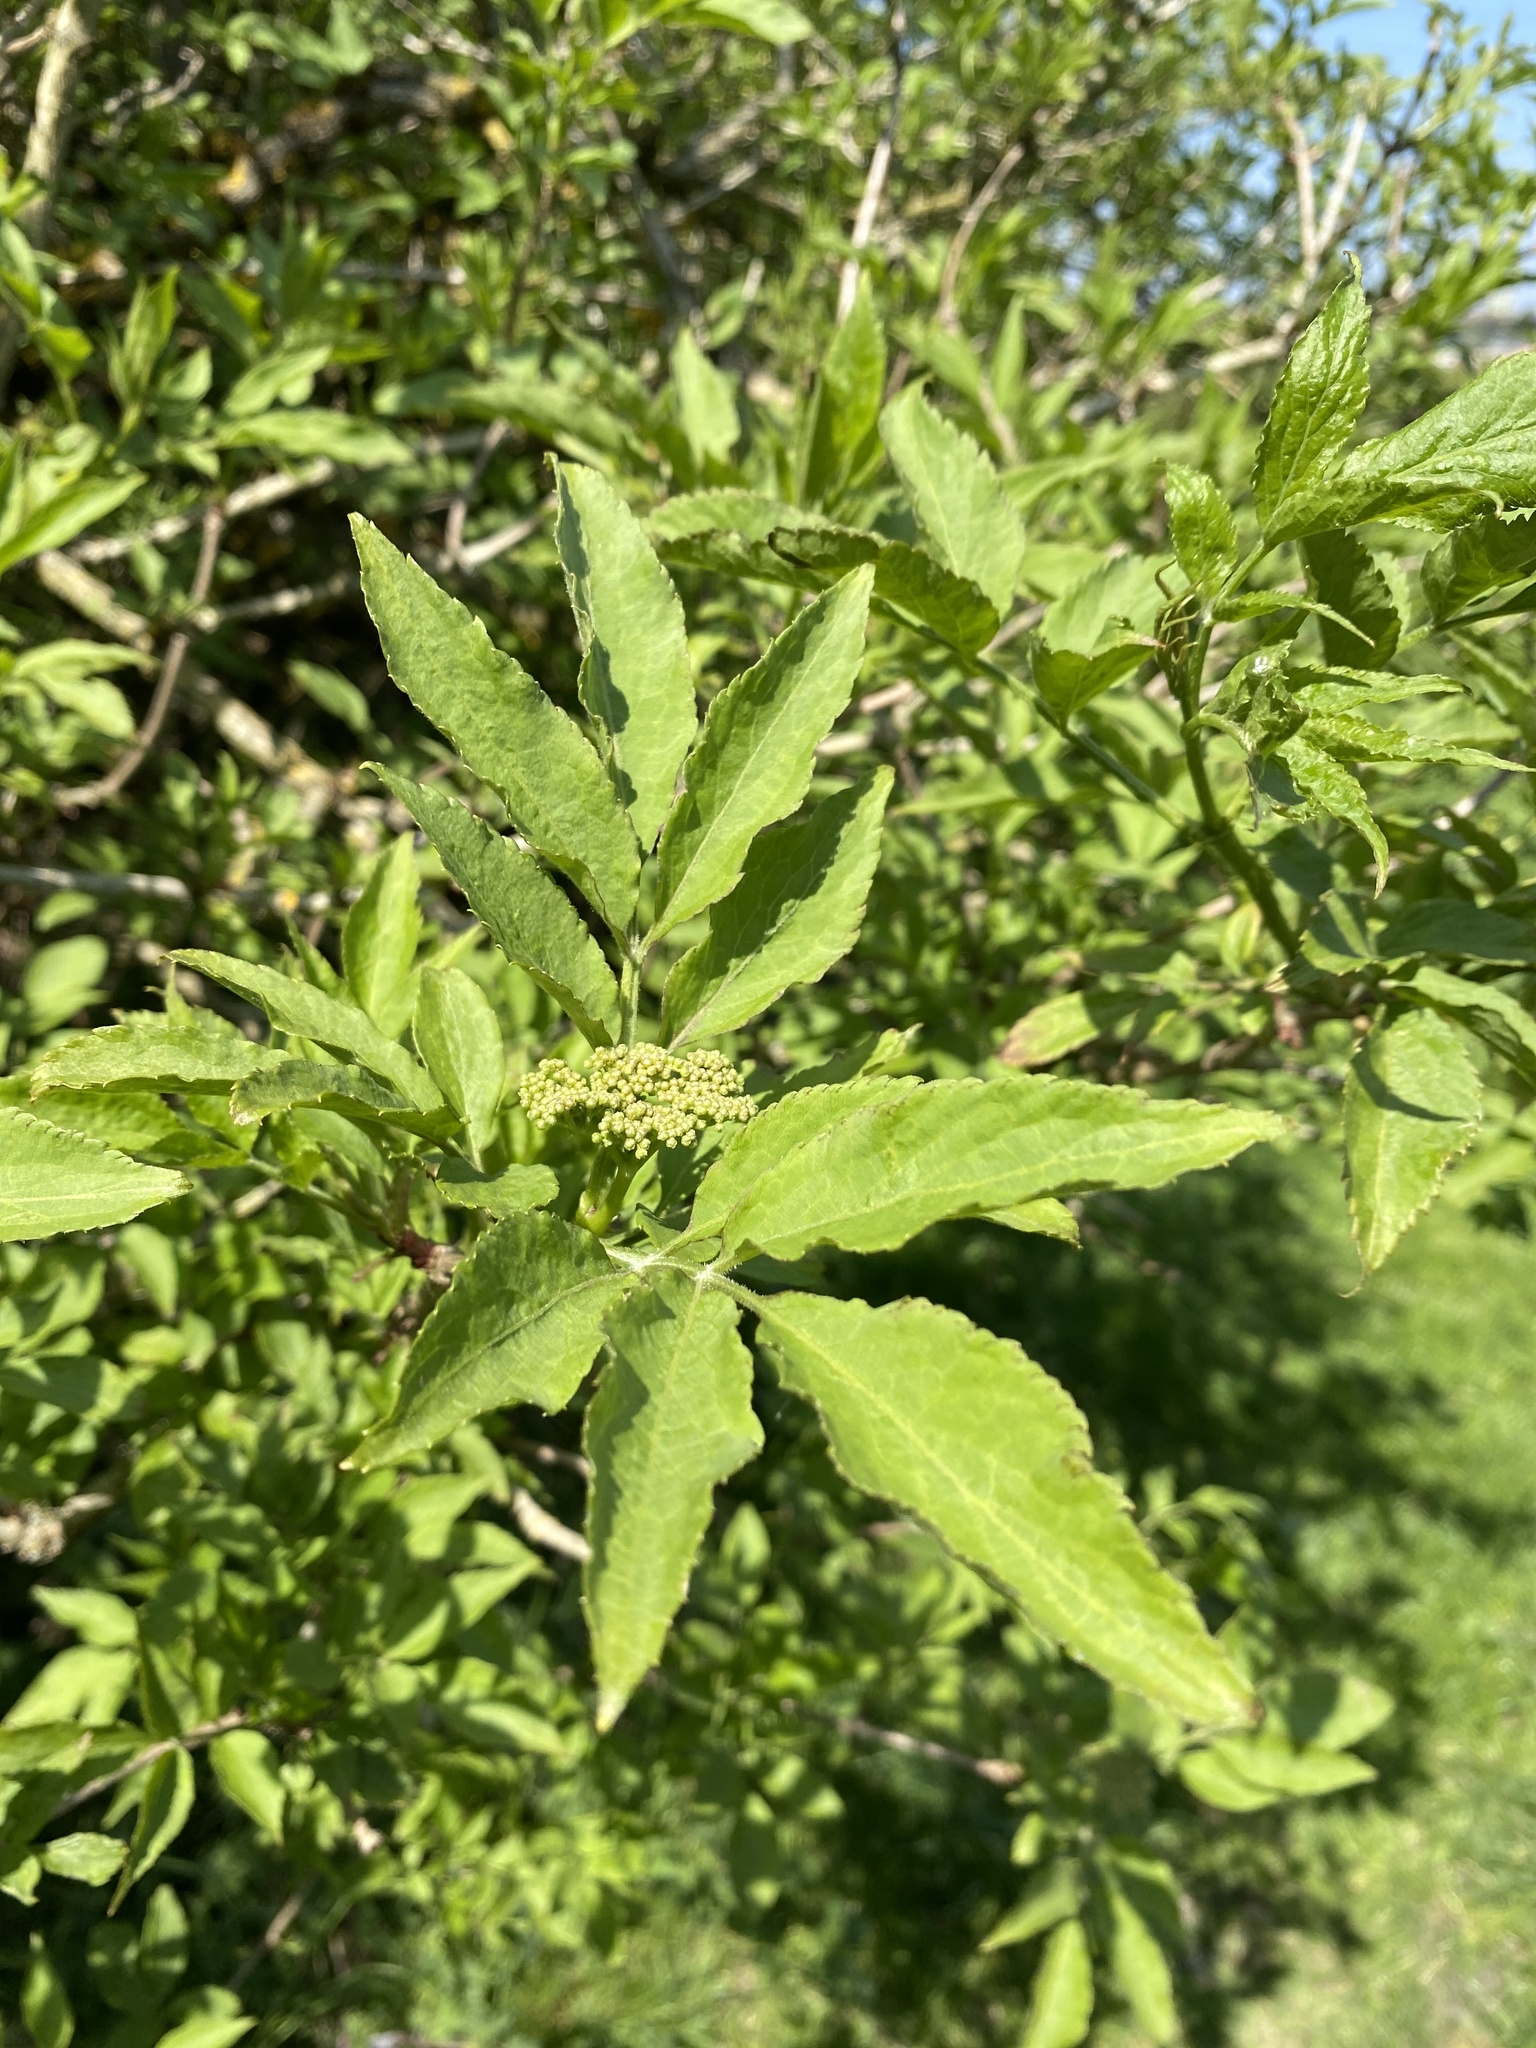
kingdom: Plantae
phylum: Tracheophyta
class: Magnoliopsida
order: Dipsacales
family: Viburnaceae
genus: Sambucus
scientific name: Sambucus nigra
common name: Elder
